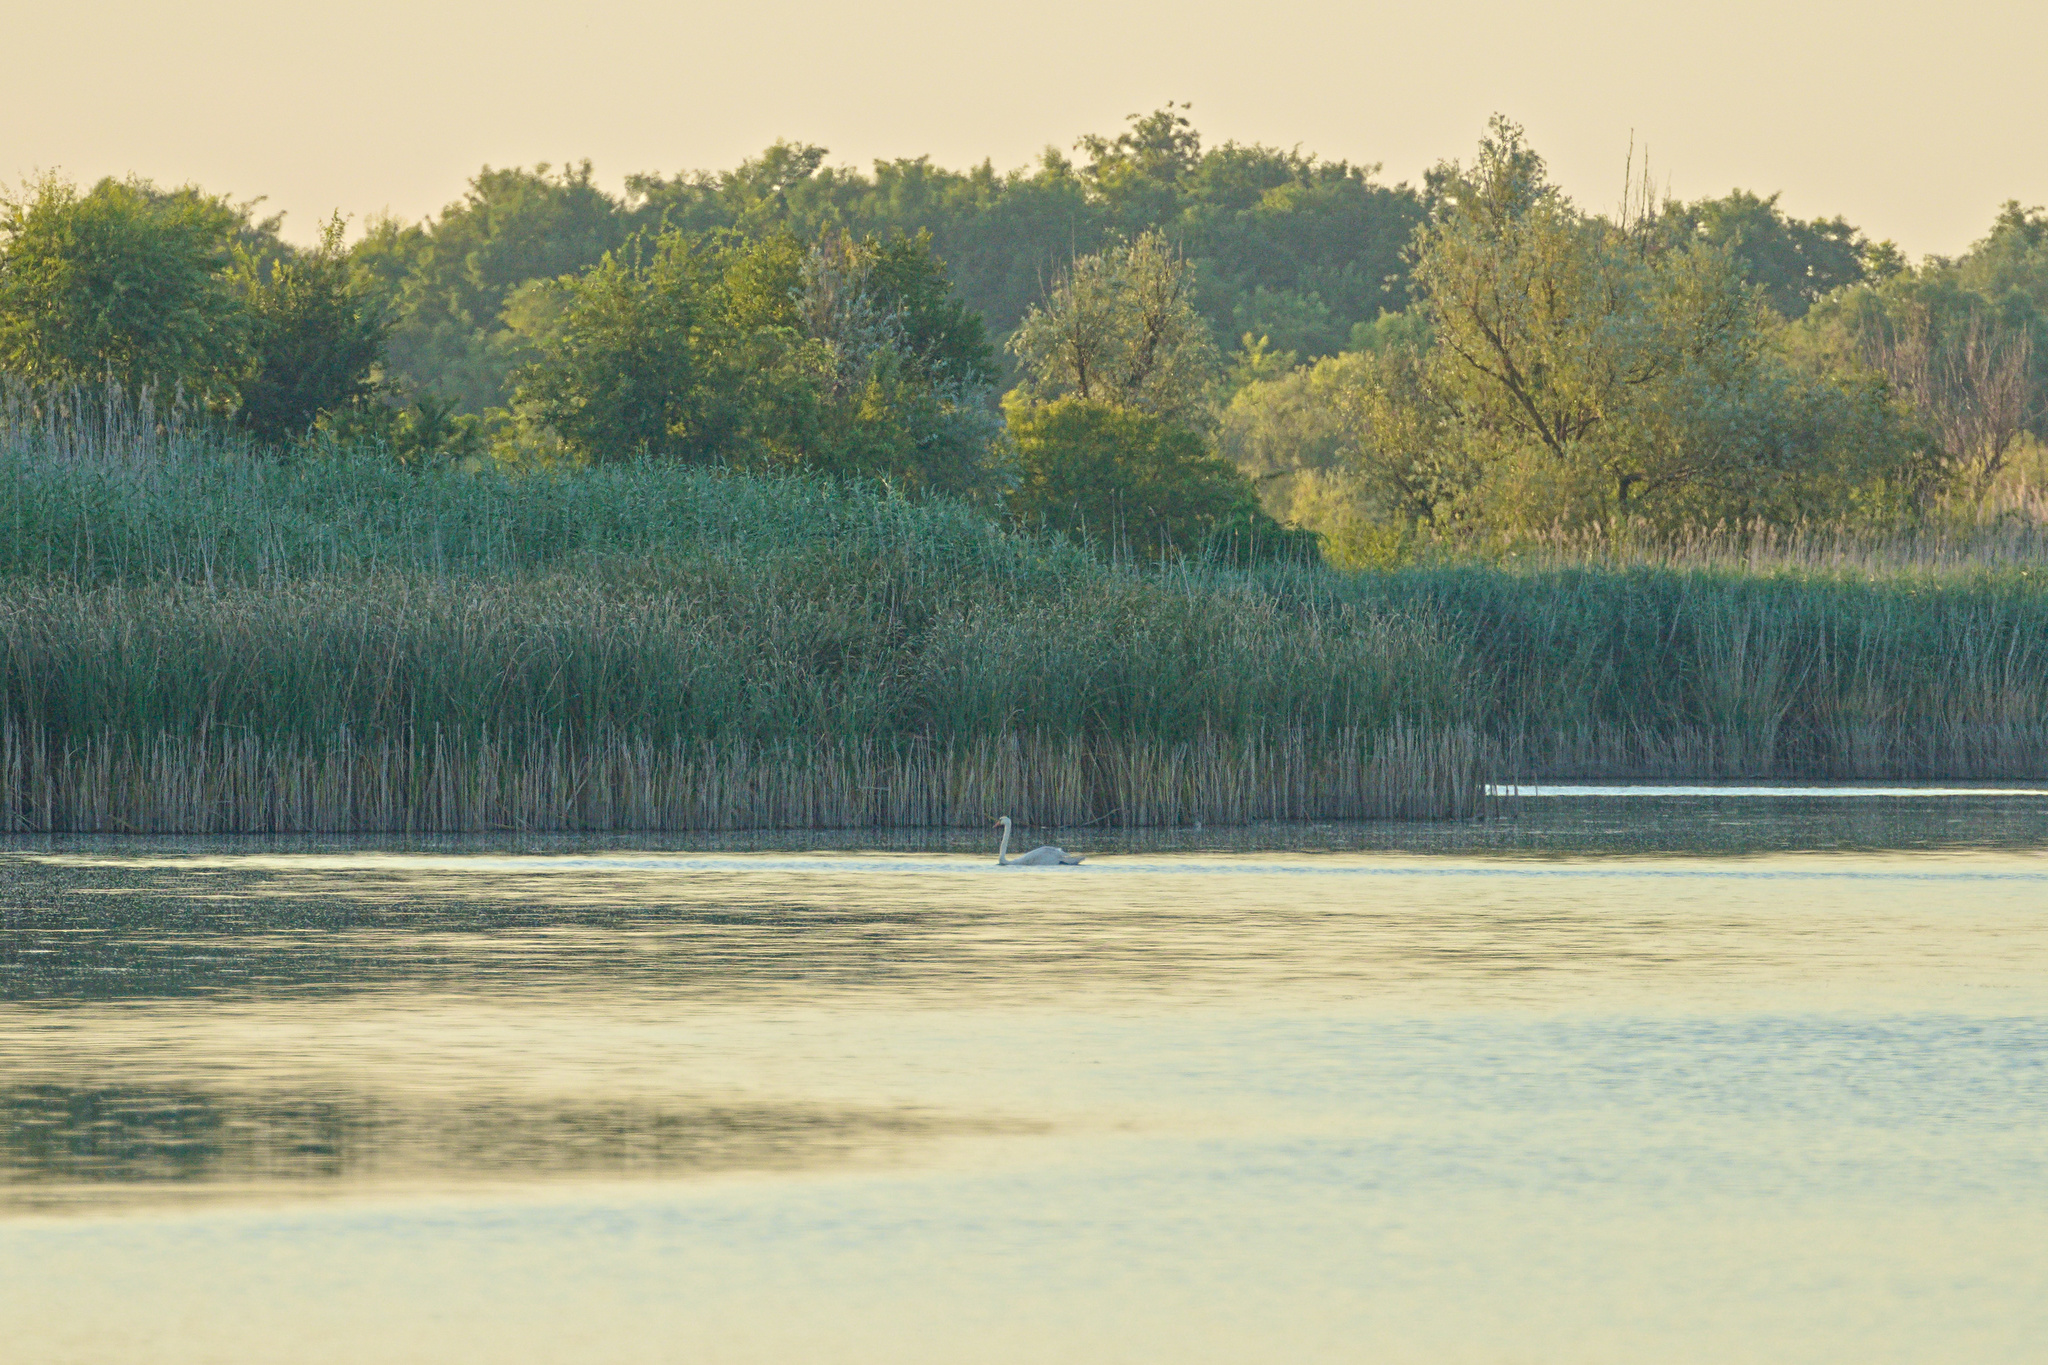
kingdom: Animalia
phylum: Chordata
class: Aves
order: Anseriformes
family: Anatidae
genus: Cygnus
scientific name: Cygnus olor
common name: Mute swan
